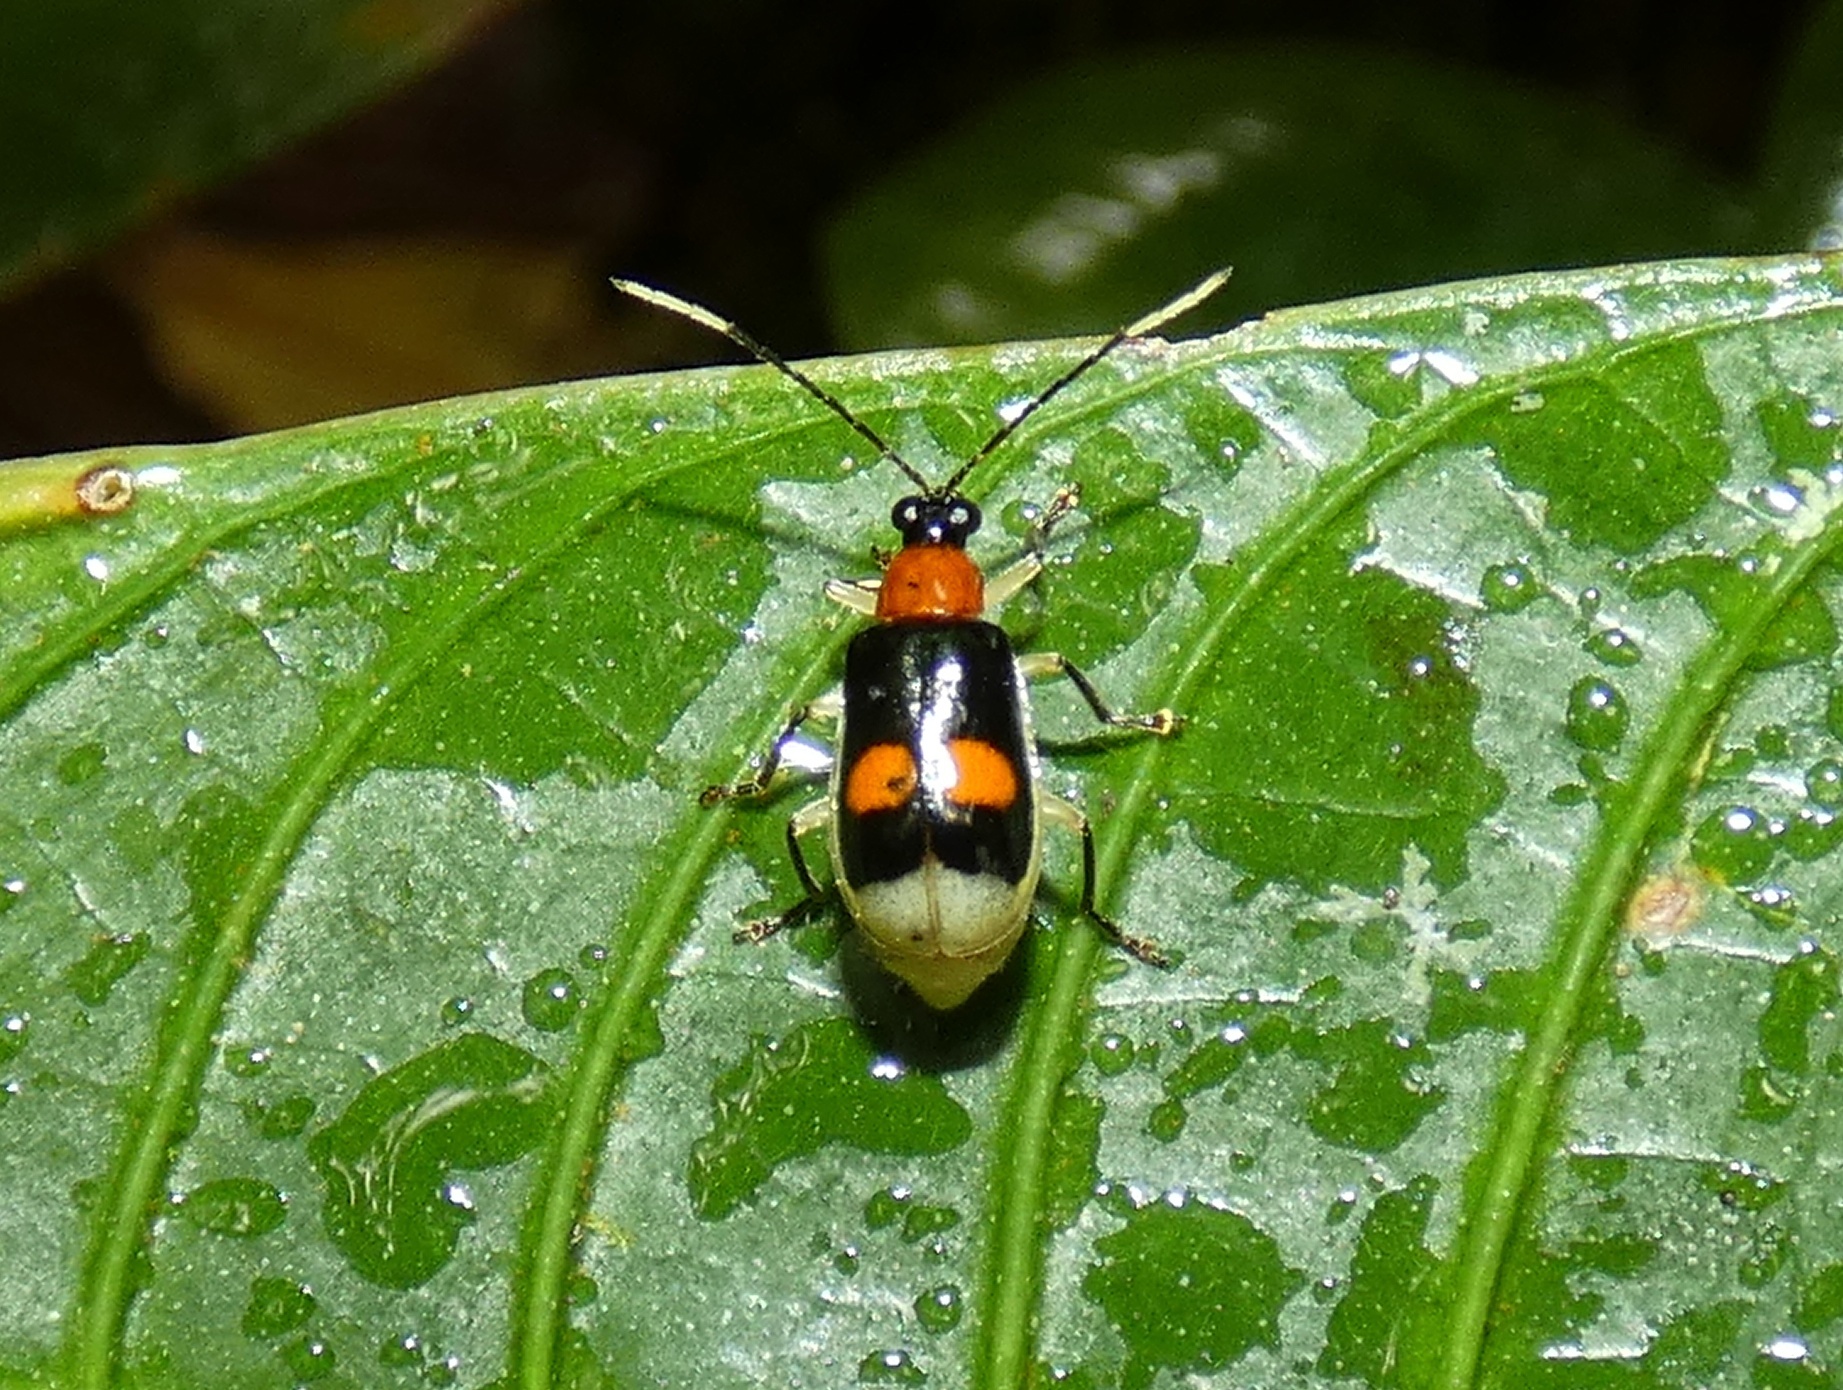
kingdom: Animalia
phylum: Arthropoda
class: Insecta
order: Coleoptera
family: Chrysomelidae
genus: Diabrotica
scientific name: Diabrotica
